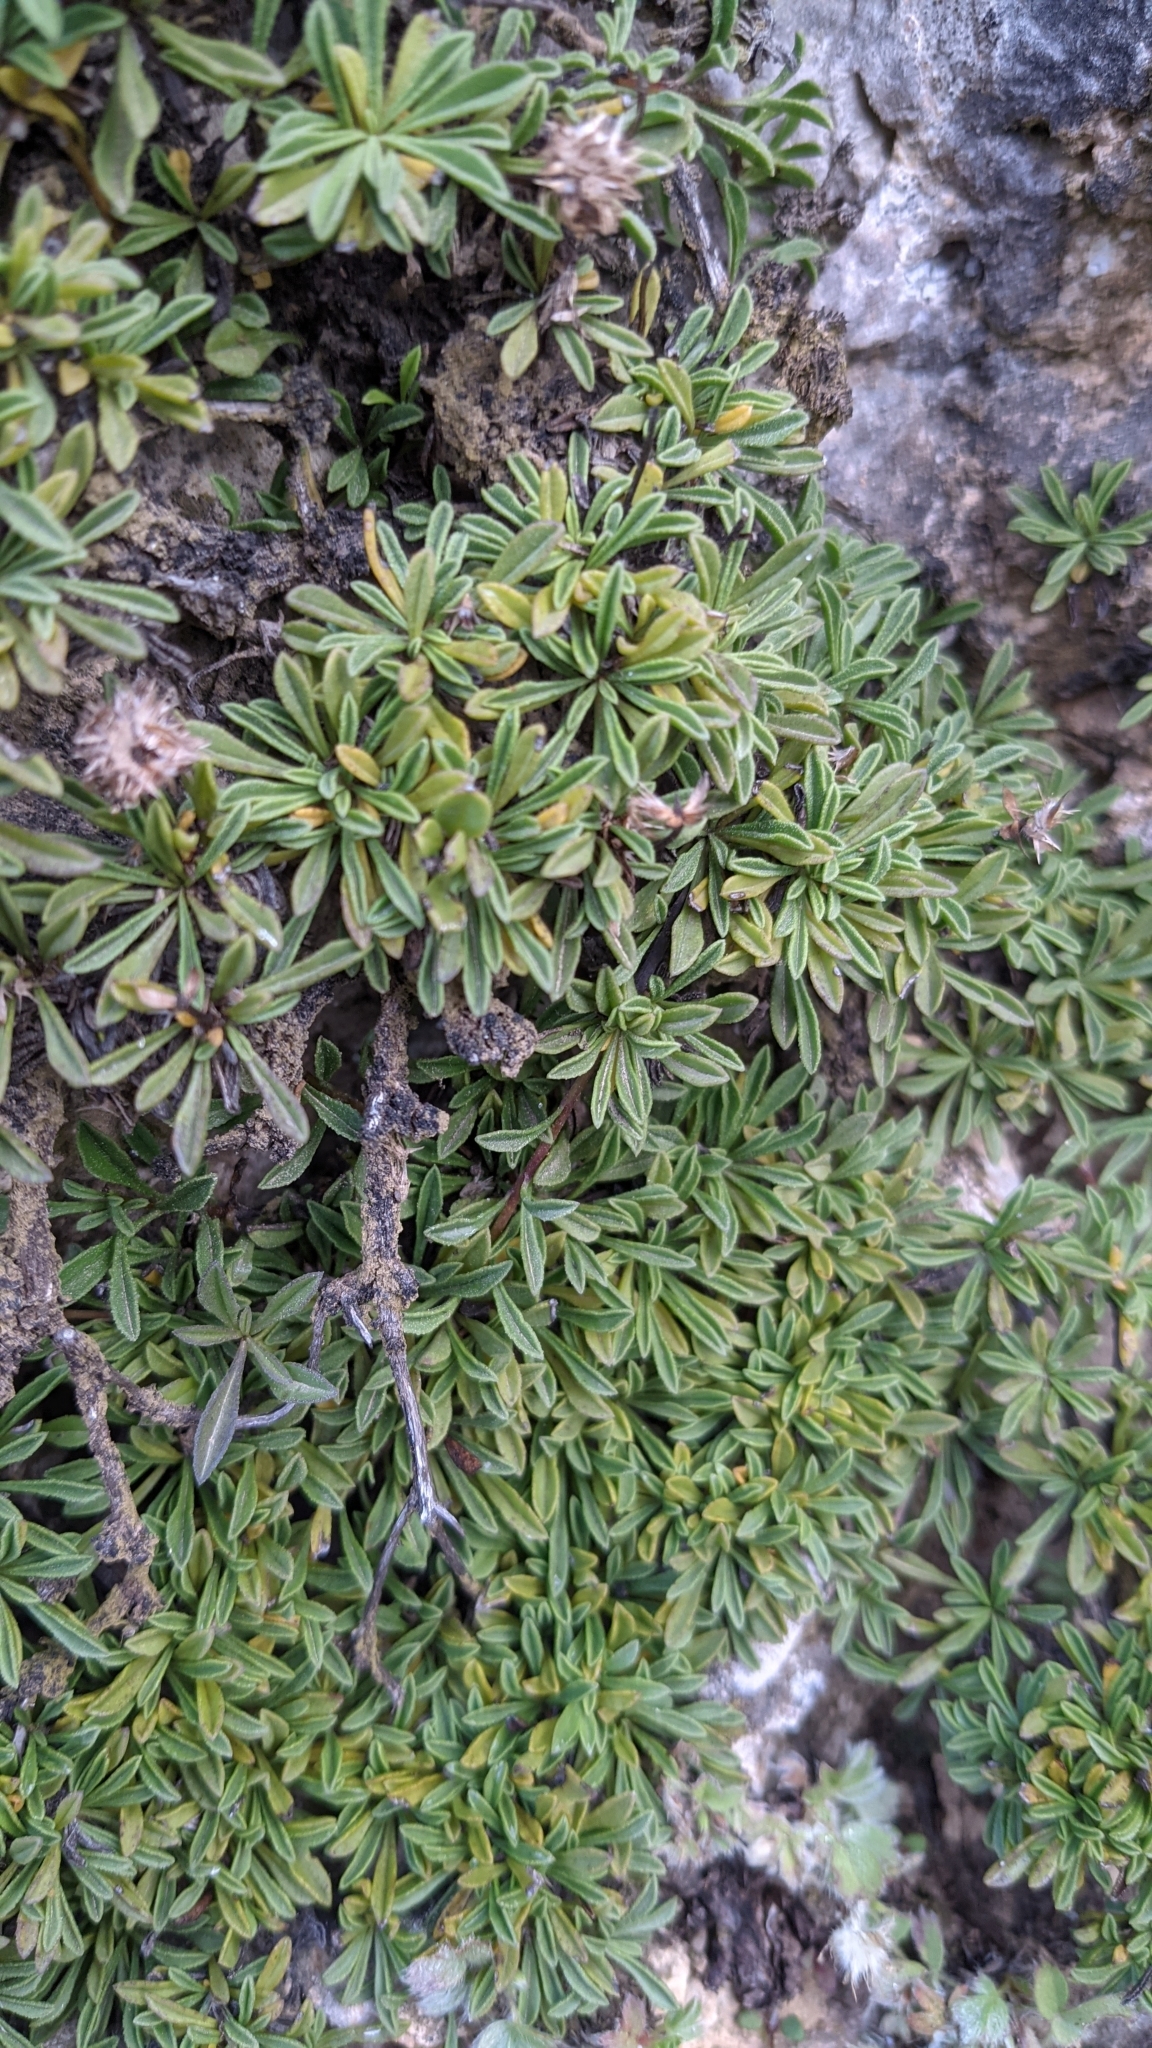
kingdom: Plantae
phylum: Tracheophyta
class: Magnoliopsida
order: Lamiales
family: Plantaginaceae
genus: Globularia
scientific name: Globularia repens
